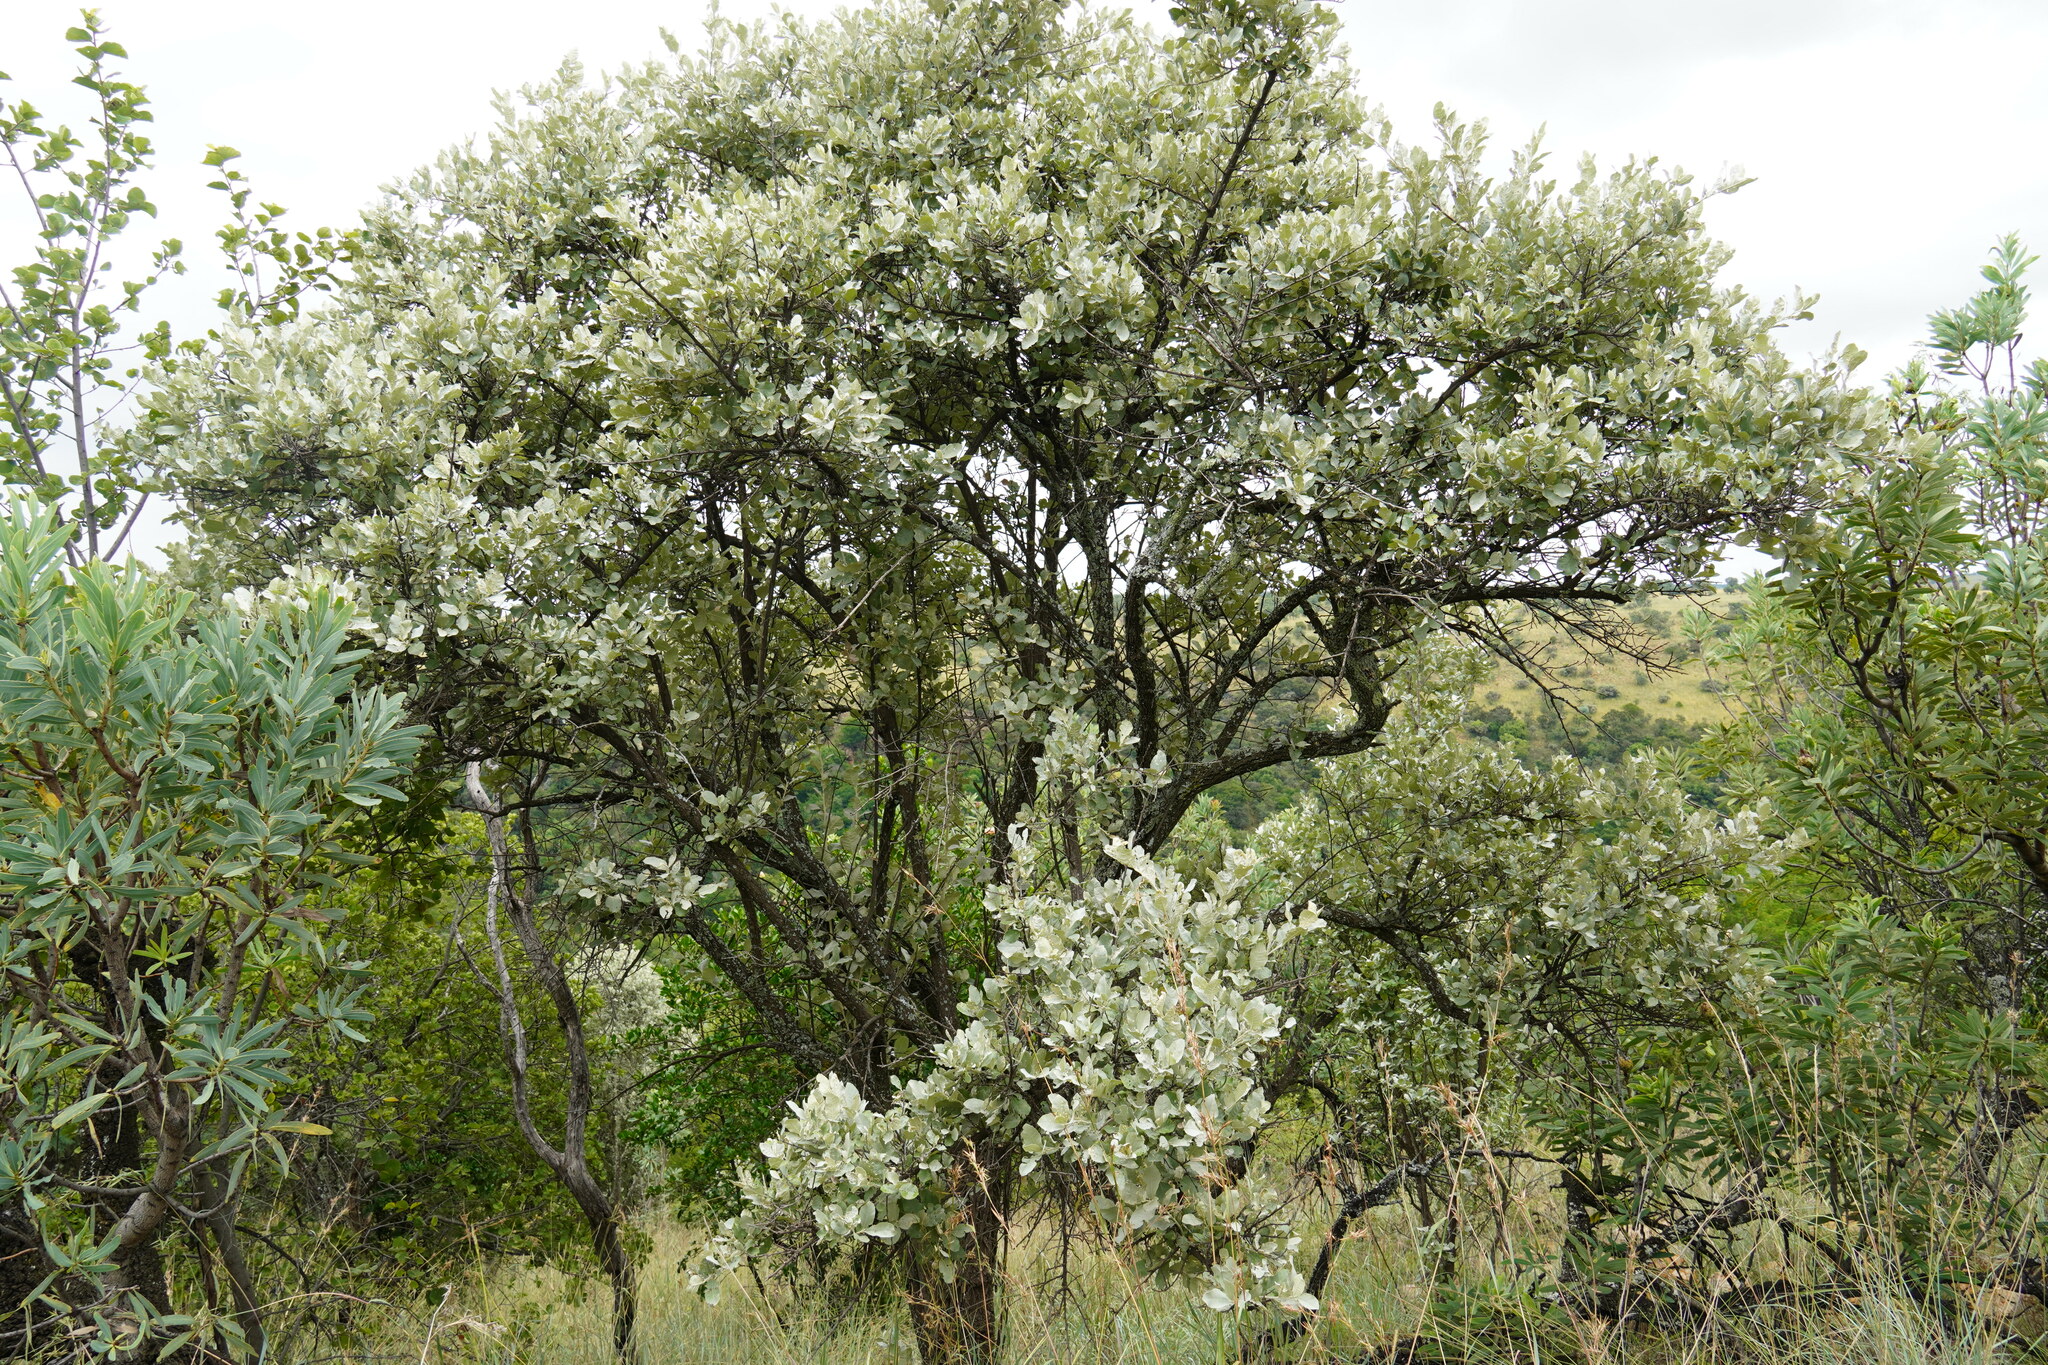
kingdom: Plantae
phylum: Tracheophyta
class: Magnoliopsida
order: Asterales
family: Asteraceae
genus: Brachylaena
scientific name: Brachylaena discolor
